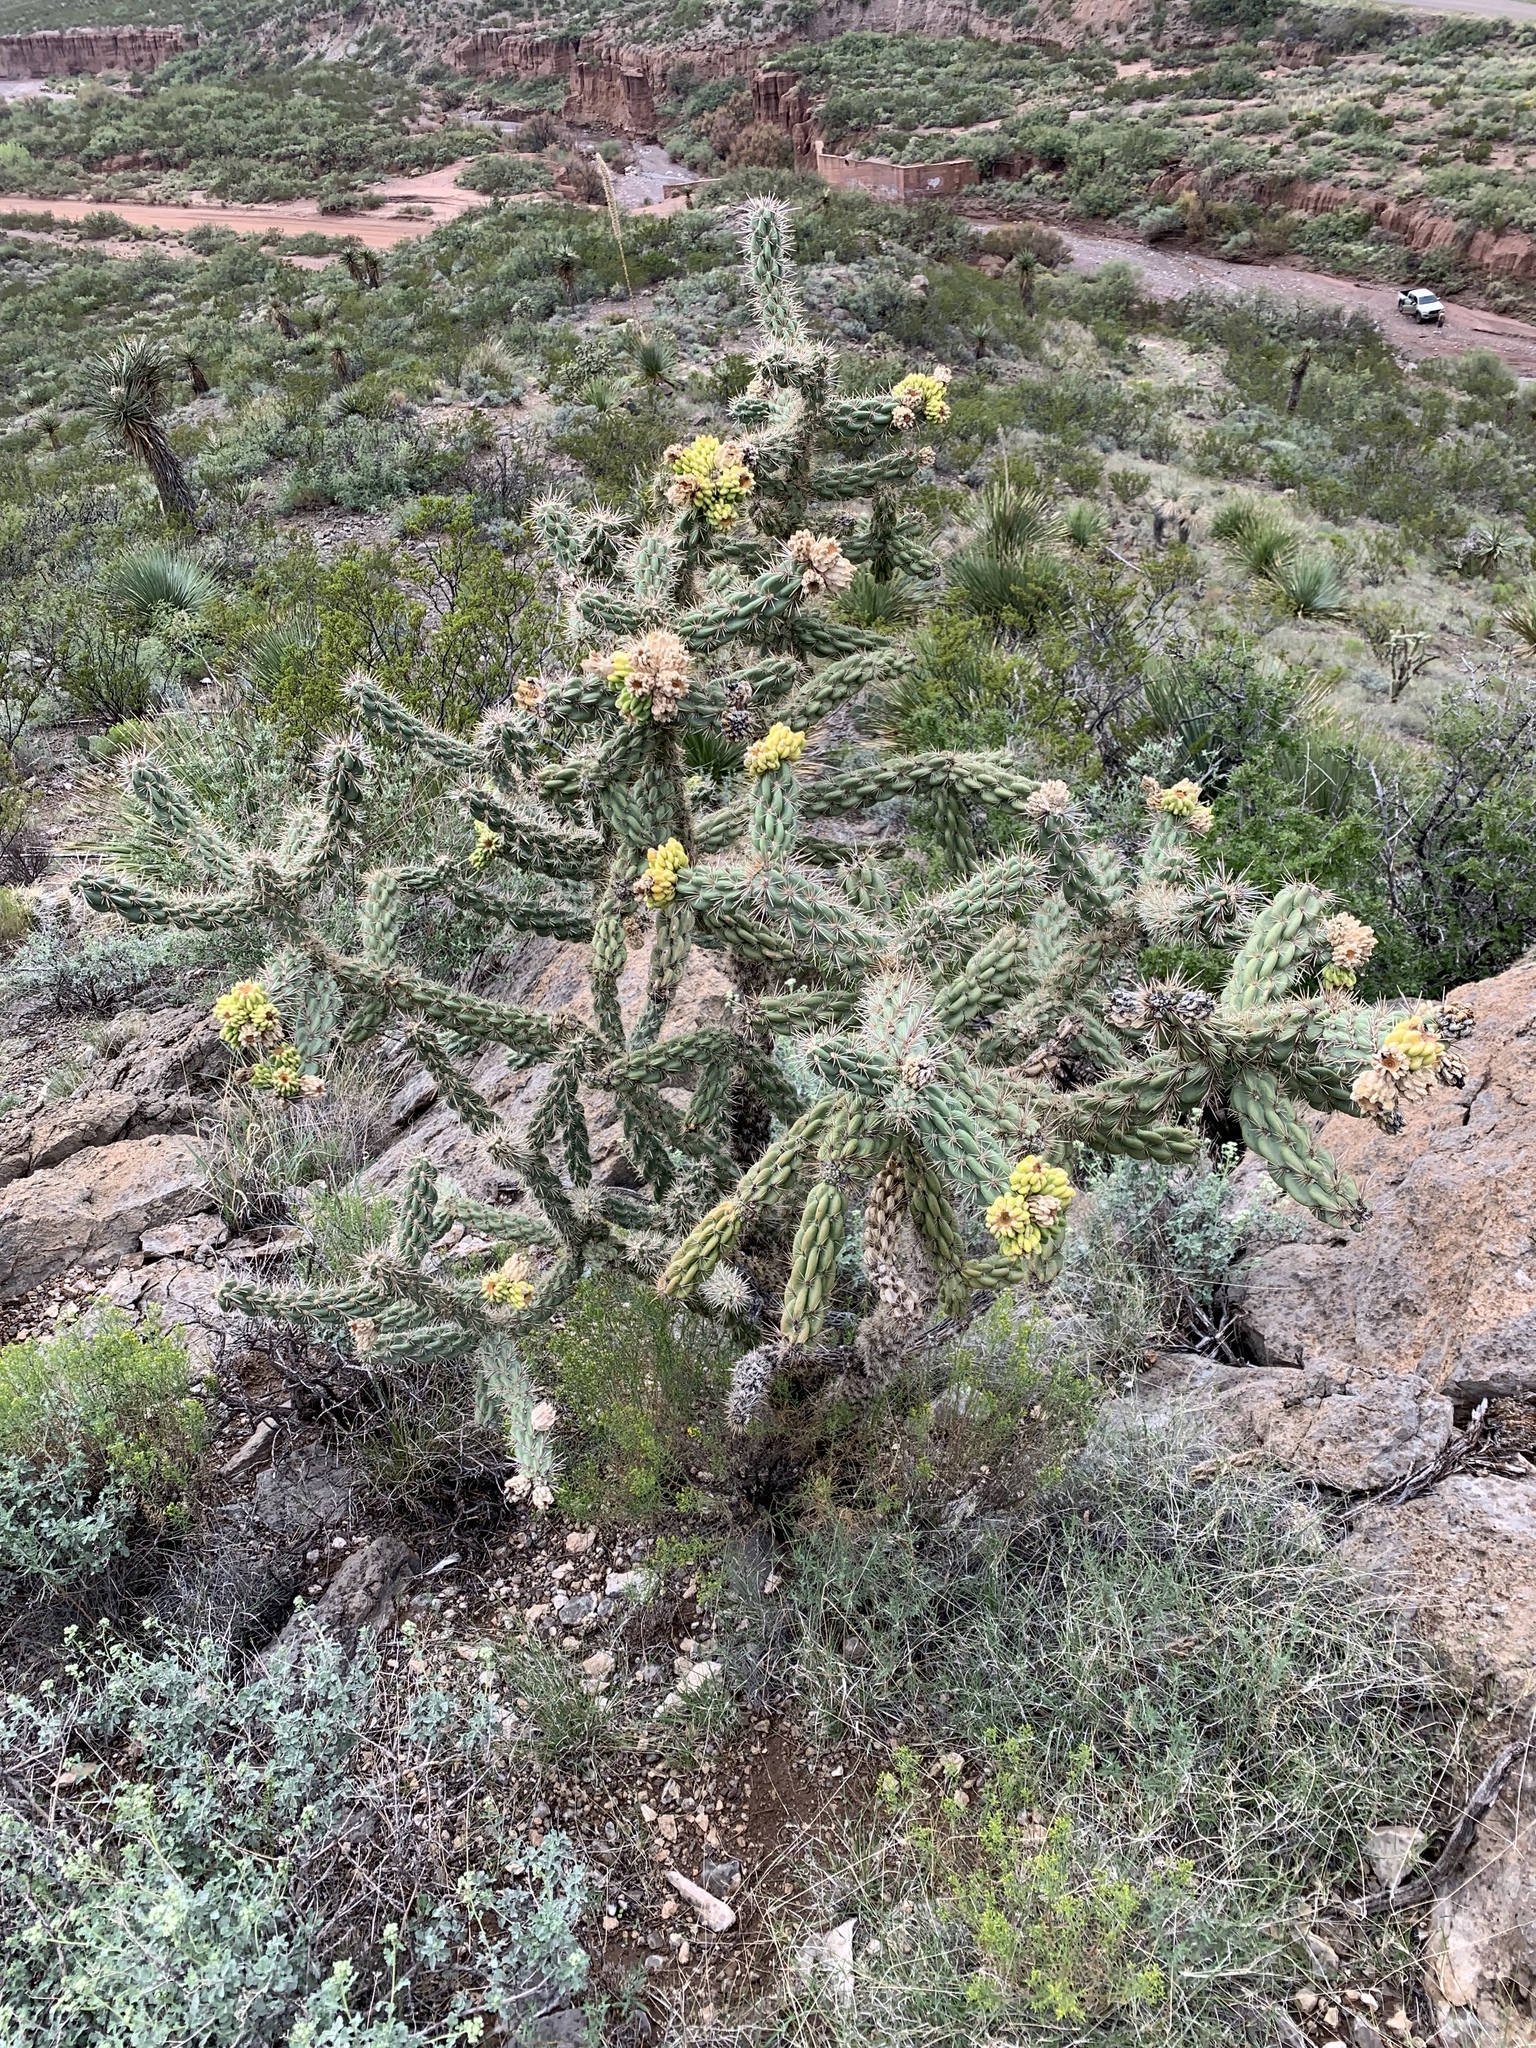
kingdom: Plantae
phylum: Tracheophyta
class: Magnoliopsida
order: Caryophyllales
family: Cactaceae
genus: Cylindropuntia
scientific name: Cylindropuntia imbricata
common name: Candelabrum cactus
